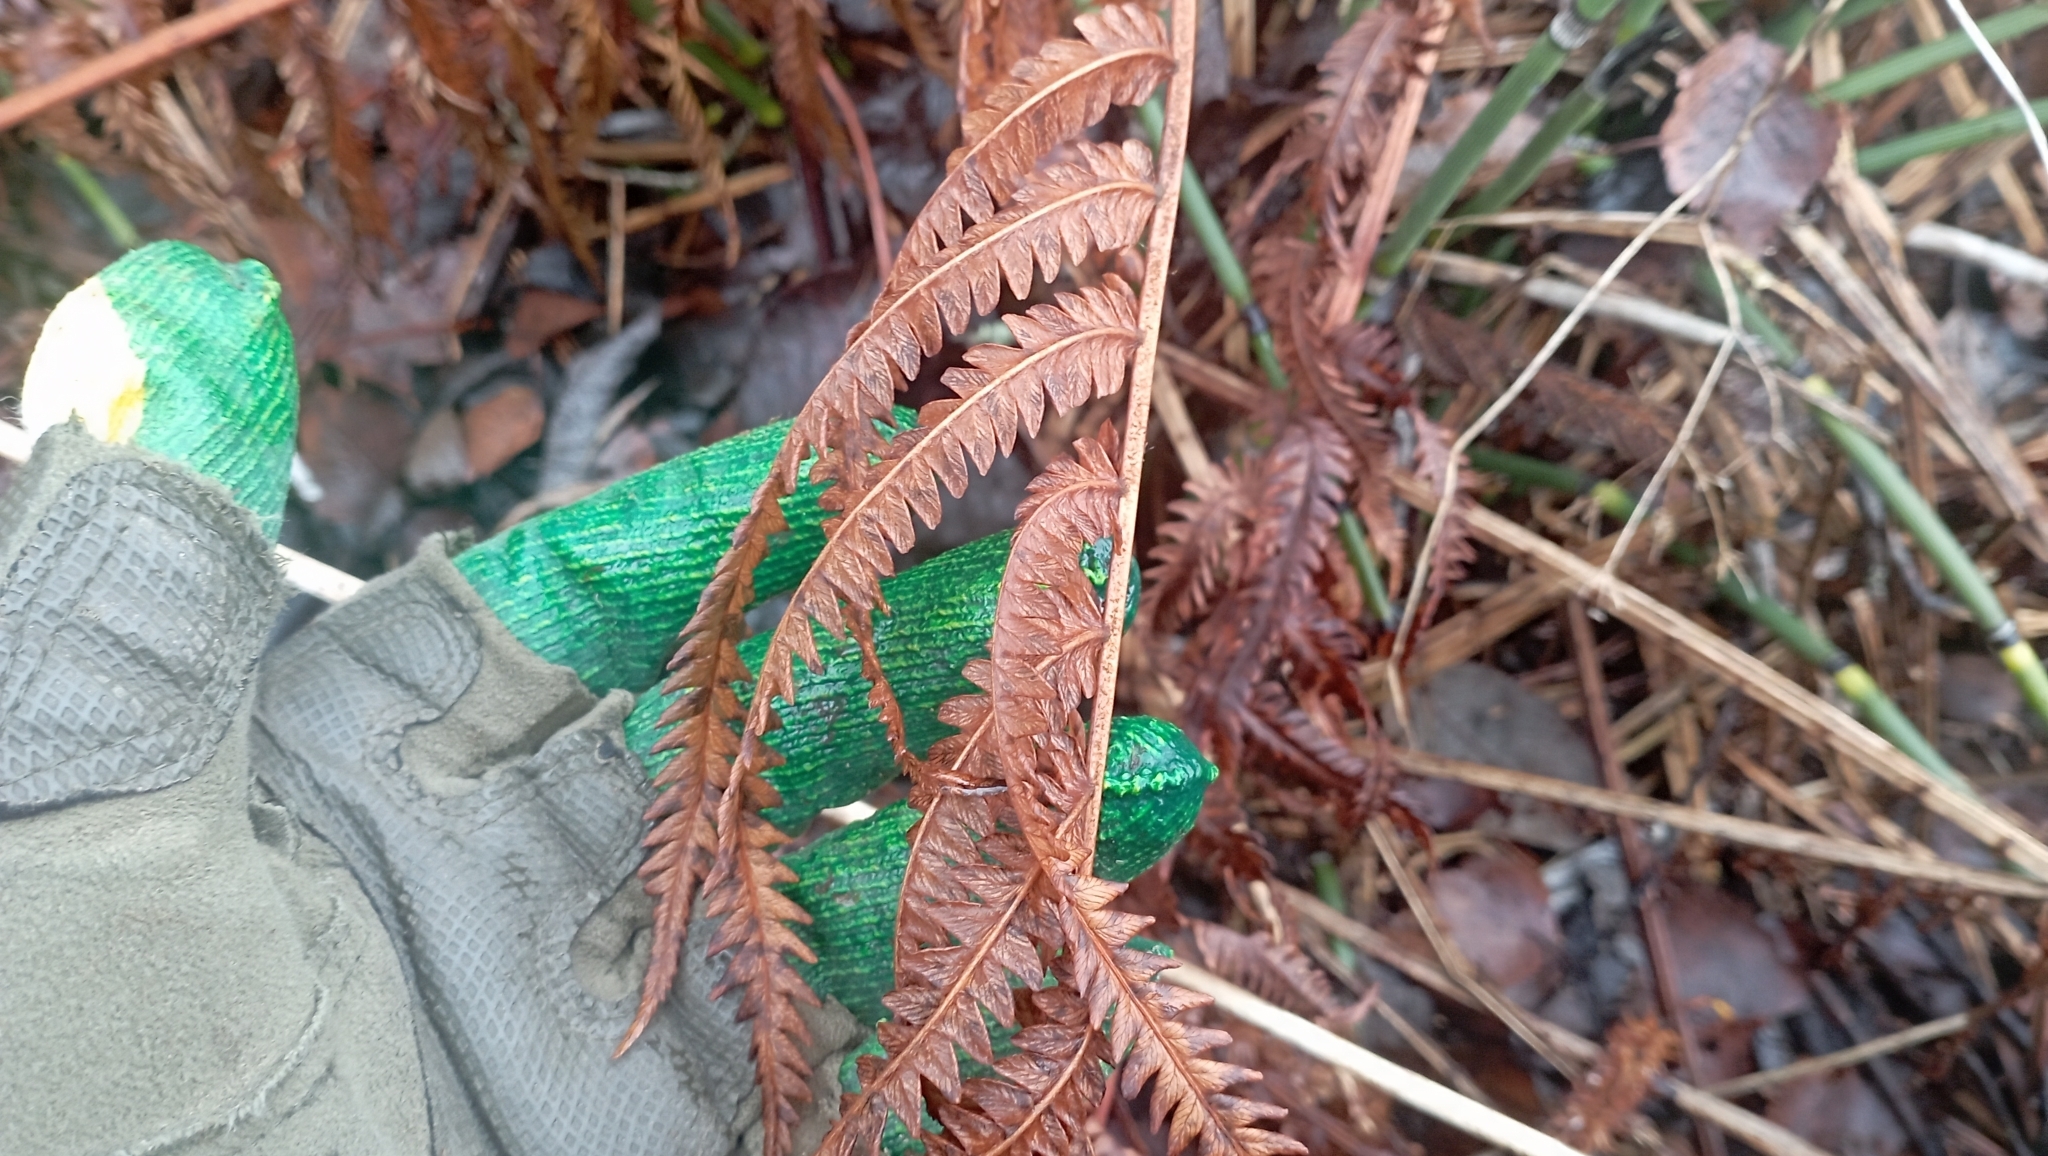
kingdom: Plantae
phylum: Tracheophyta
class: Polypodiopsida
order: Polypodiales
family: Onocleaceae
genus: Matteuccia
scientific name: Matteuccia struthiopteris
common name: Ostrich fern
